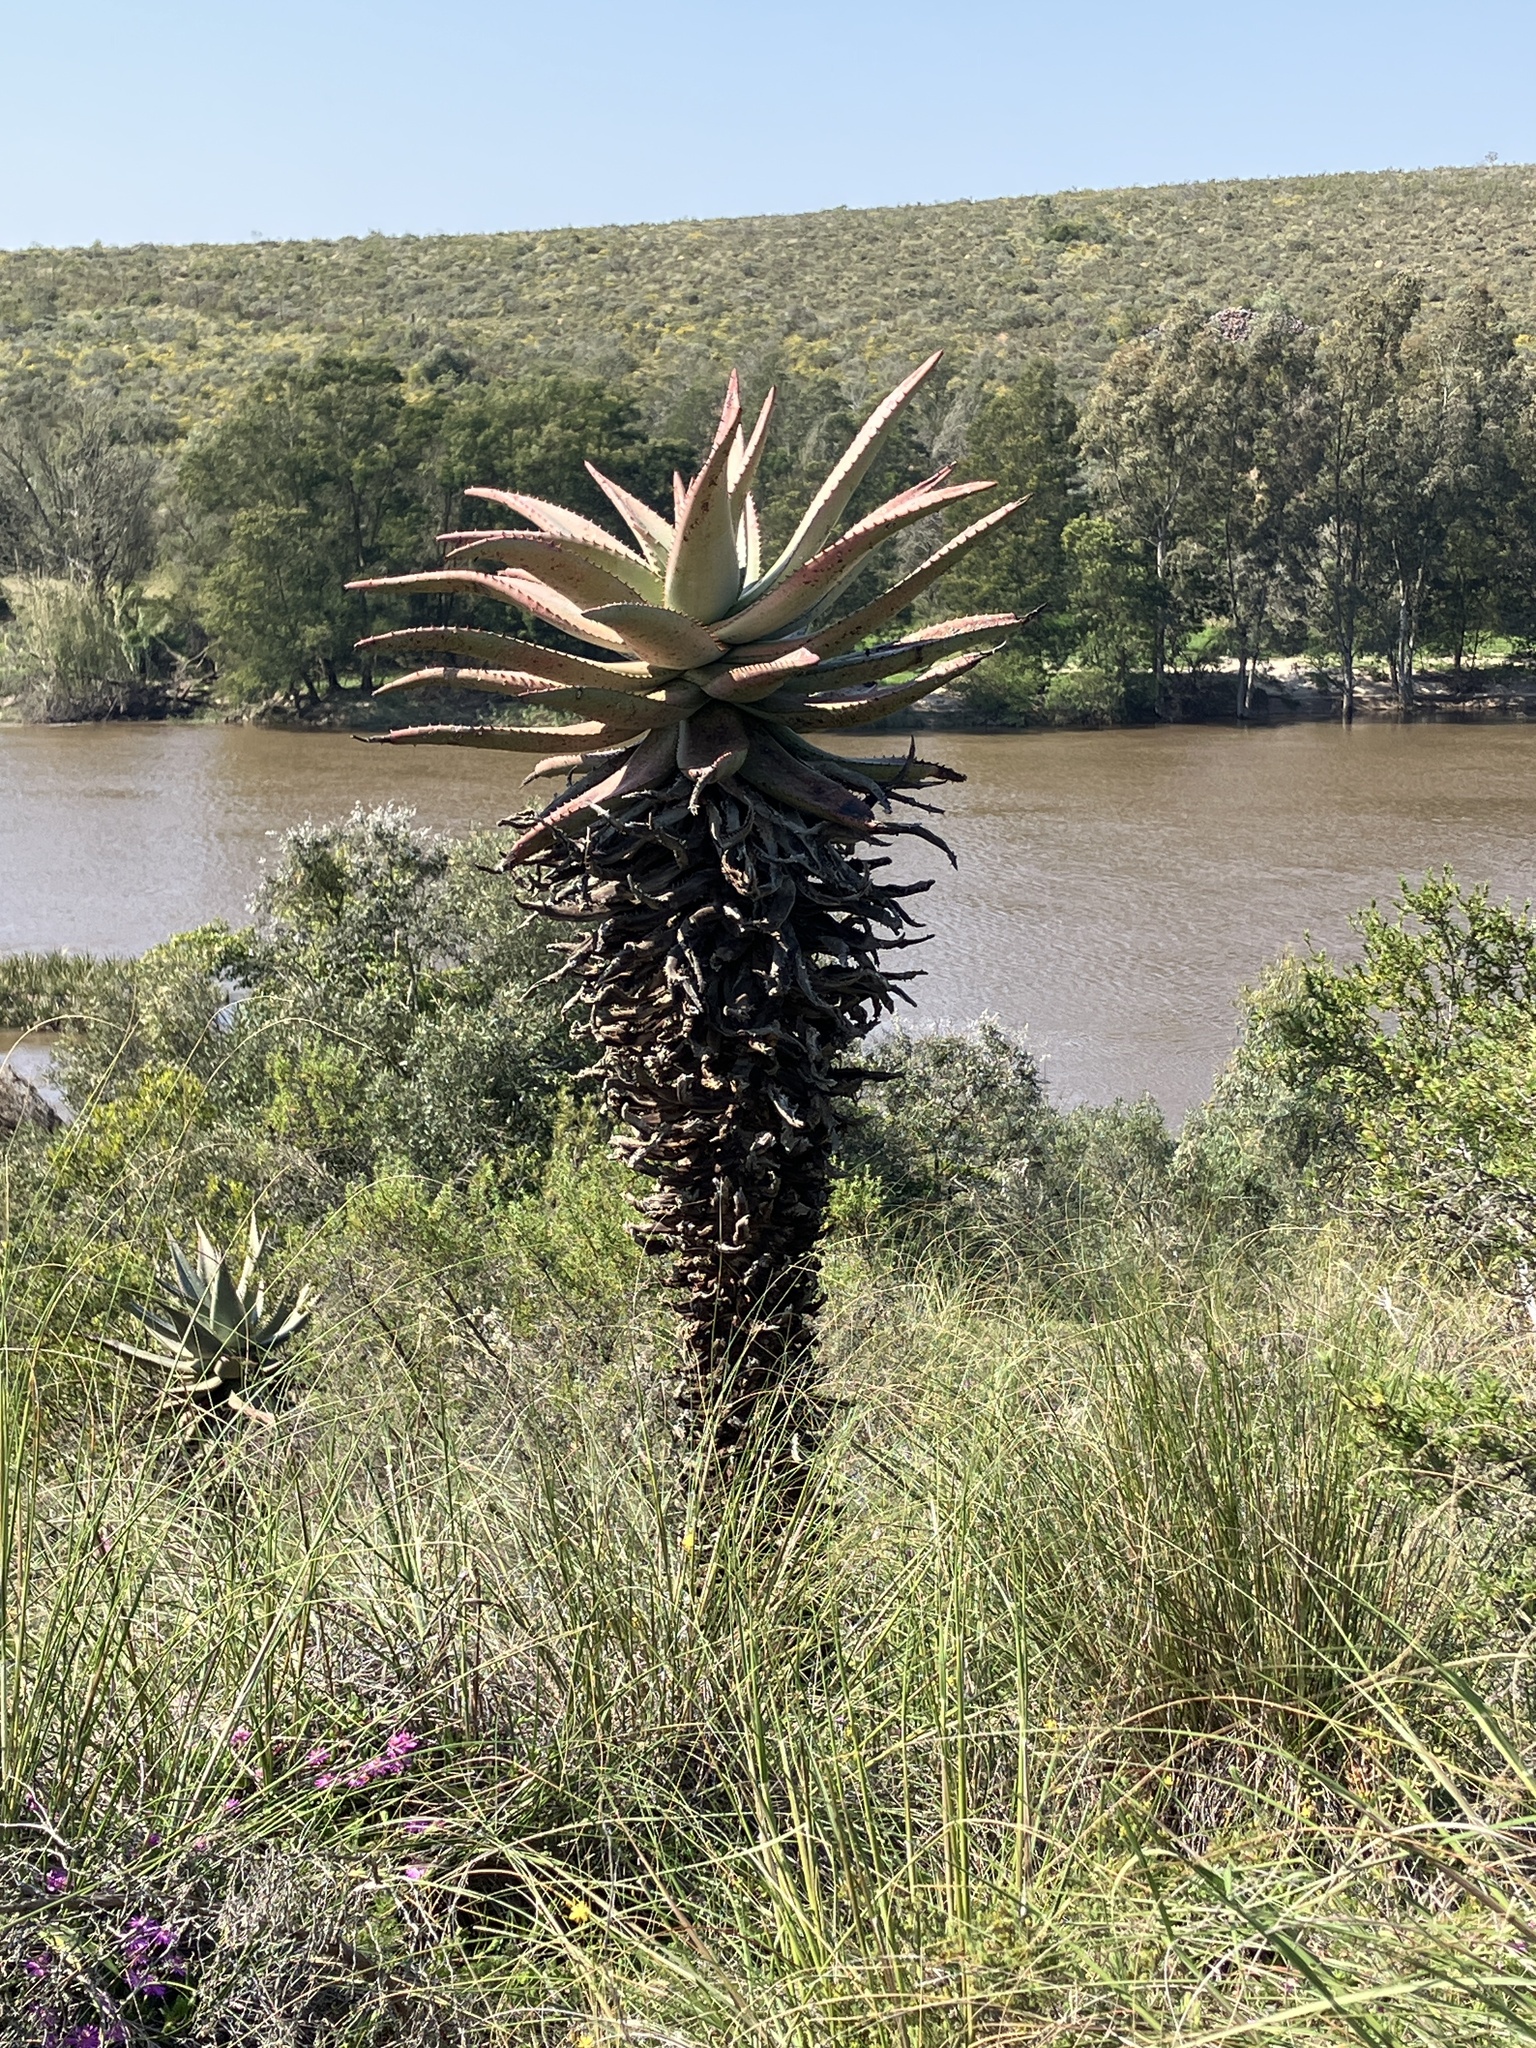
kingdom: Plantae
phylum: Tracheophyta
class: Liliopsida
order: Asparagales
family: Asphodelaceae
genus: Aloe
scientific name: Aloe ferox
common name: Bitter aloe
